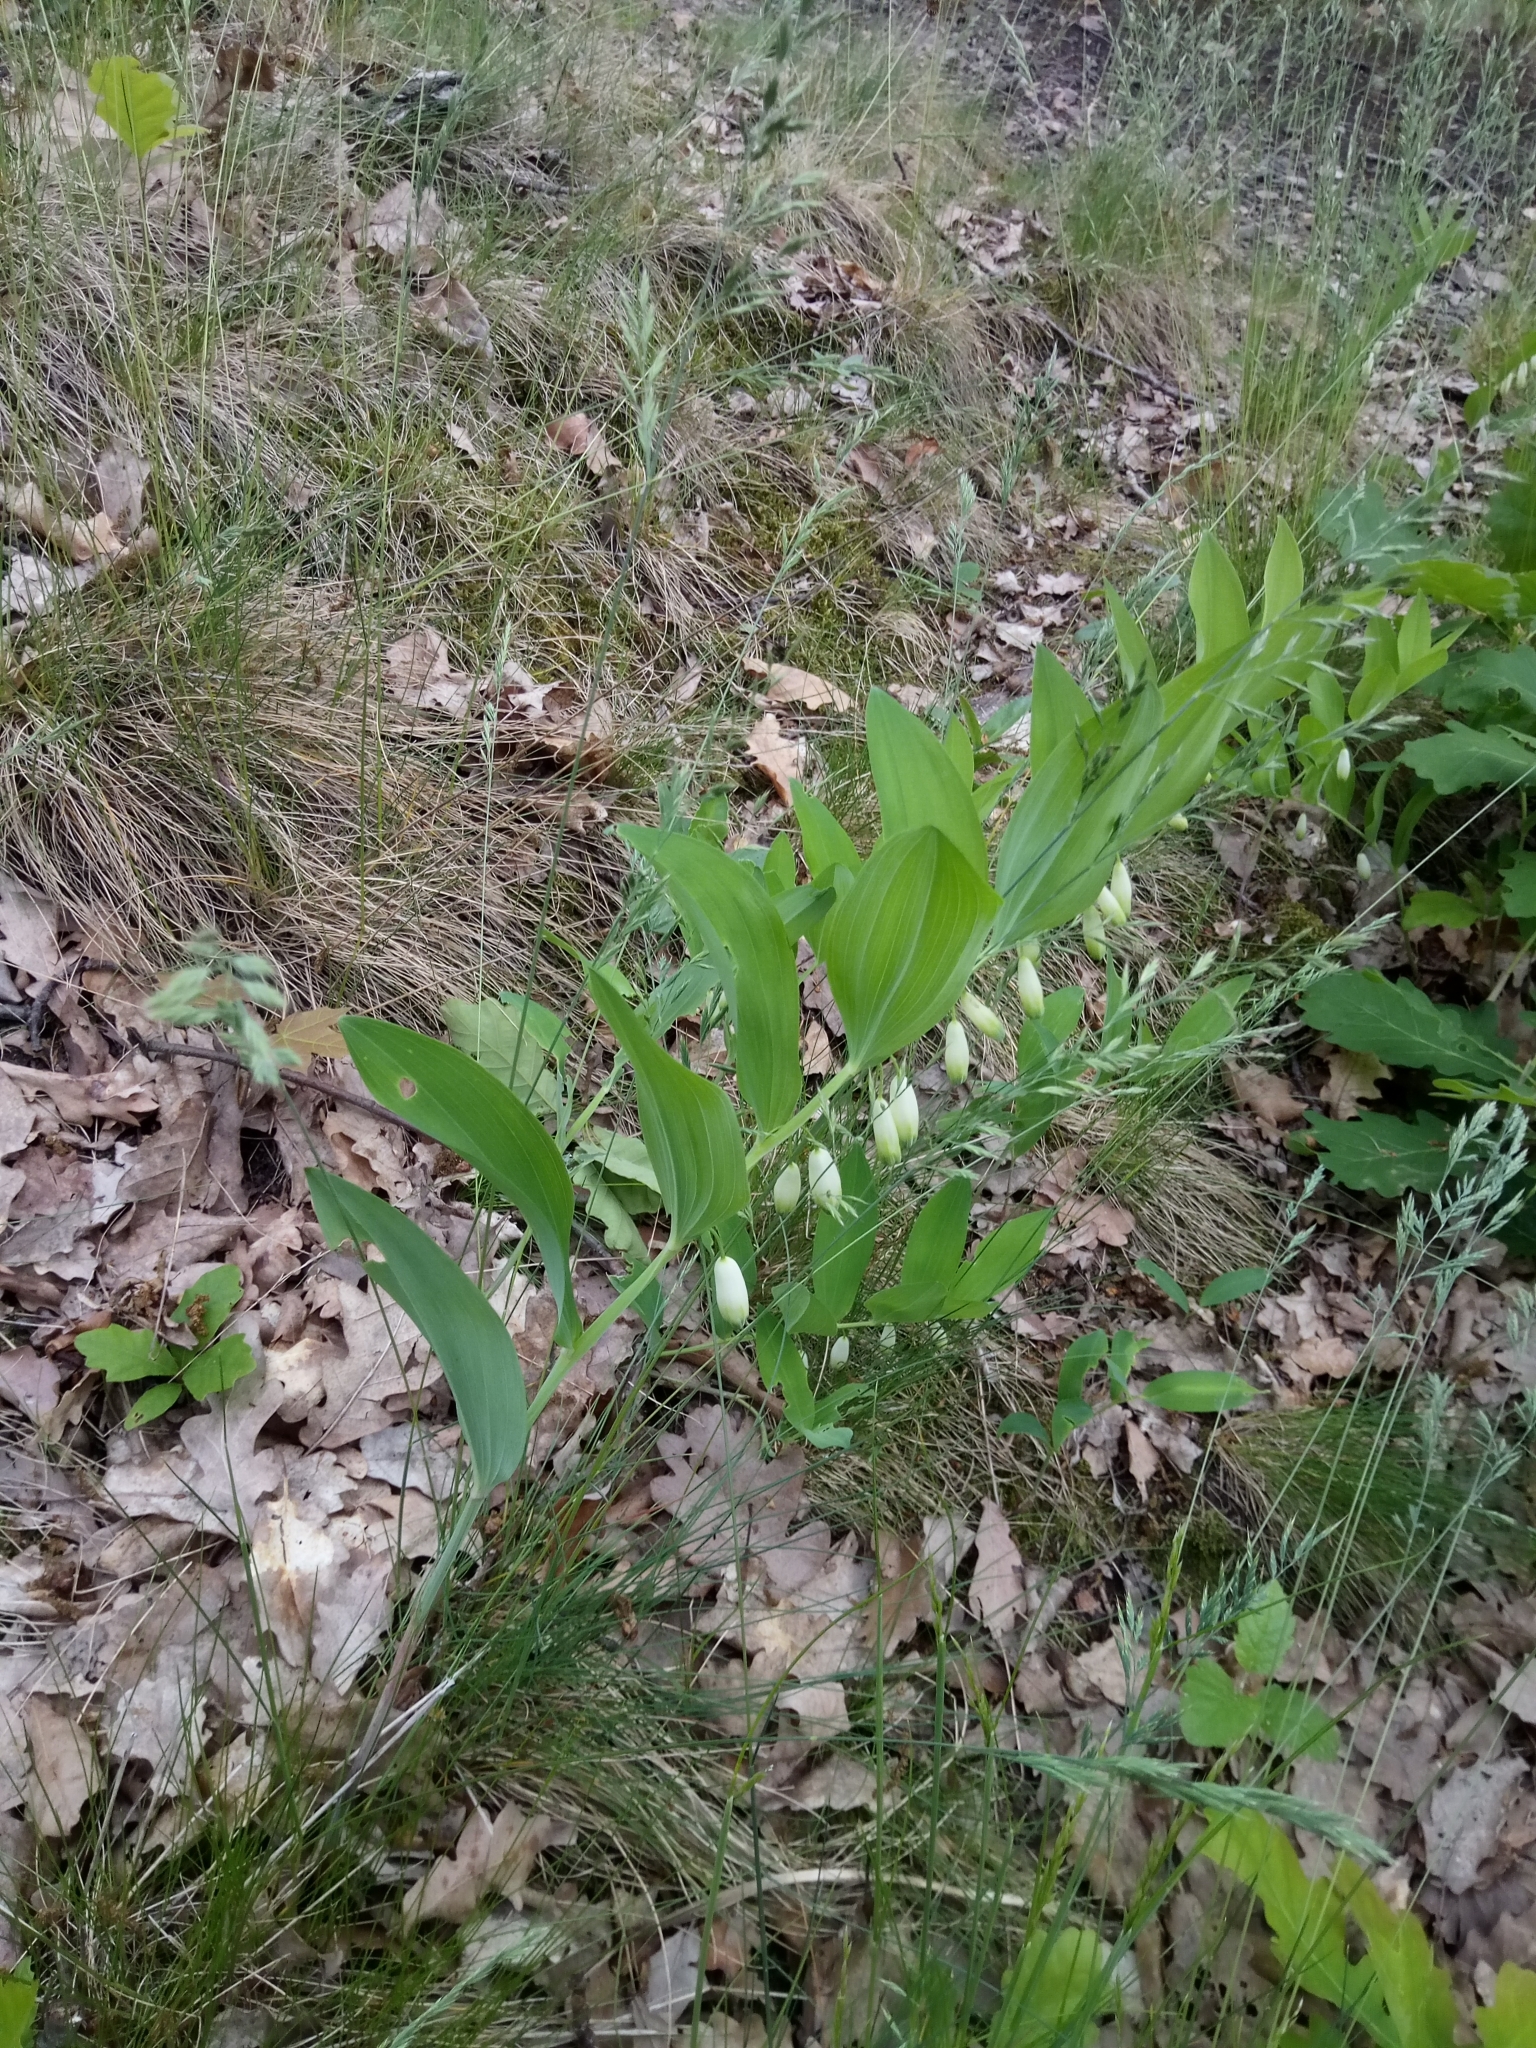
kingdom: Plantae
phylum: Tracheophyta
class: Liliopsida
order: Asparagales
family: Asparagaceae
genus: Polygonatum
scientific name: Polygonatum odoratum
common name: Angular solomon's-seal
